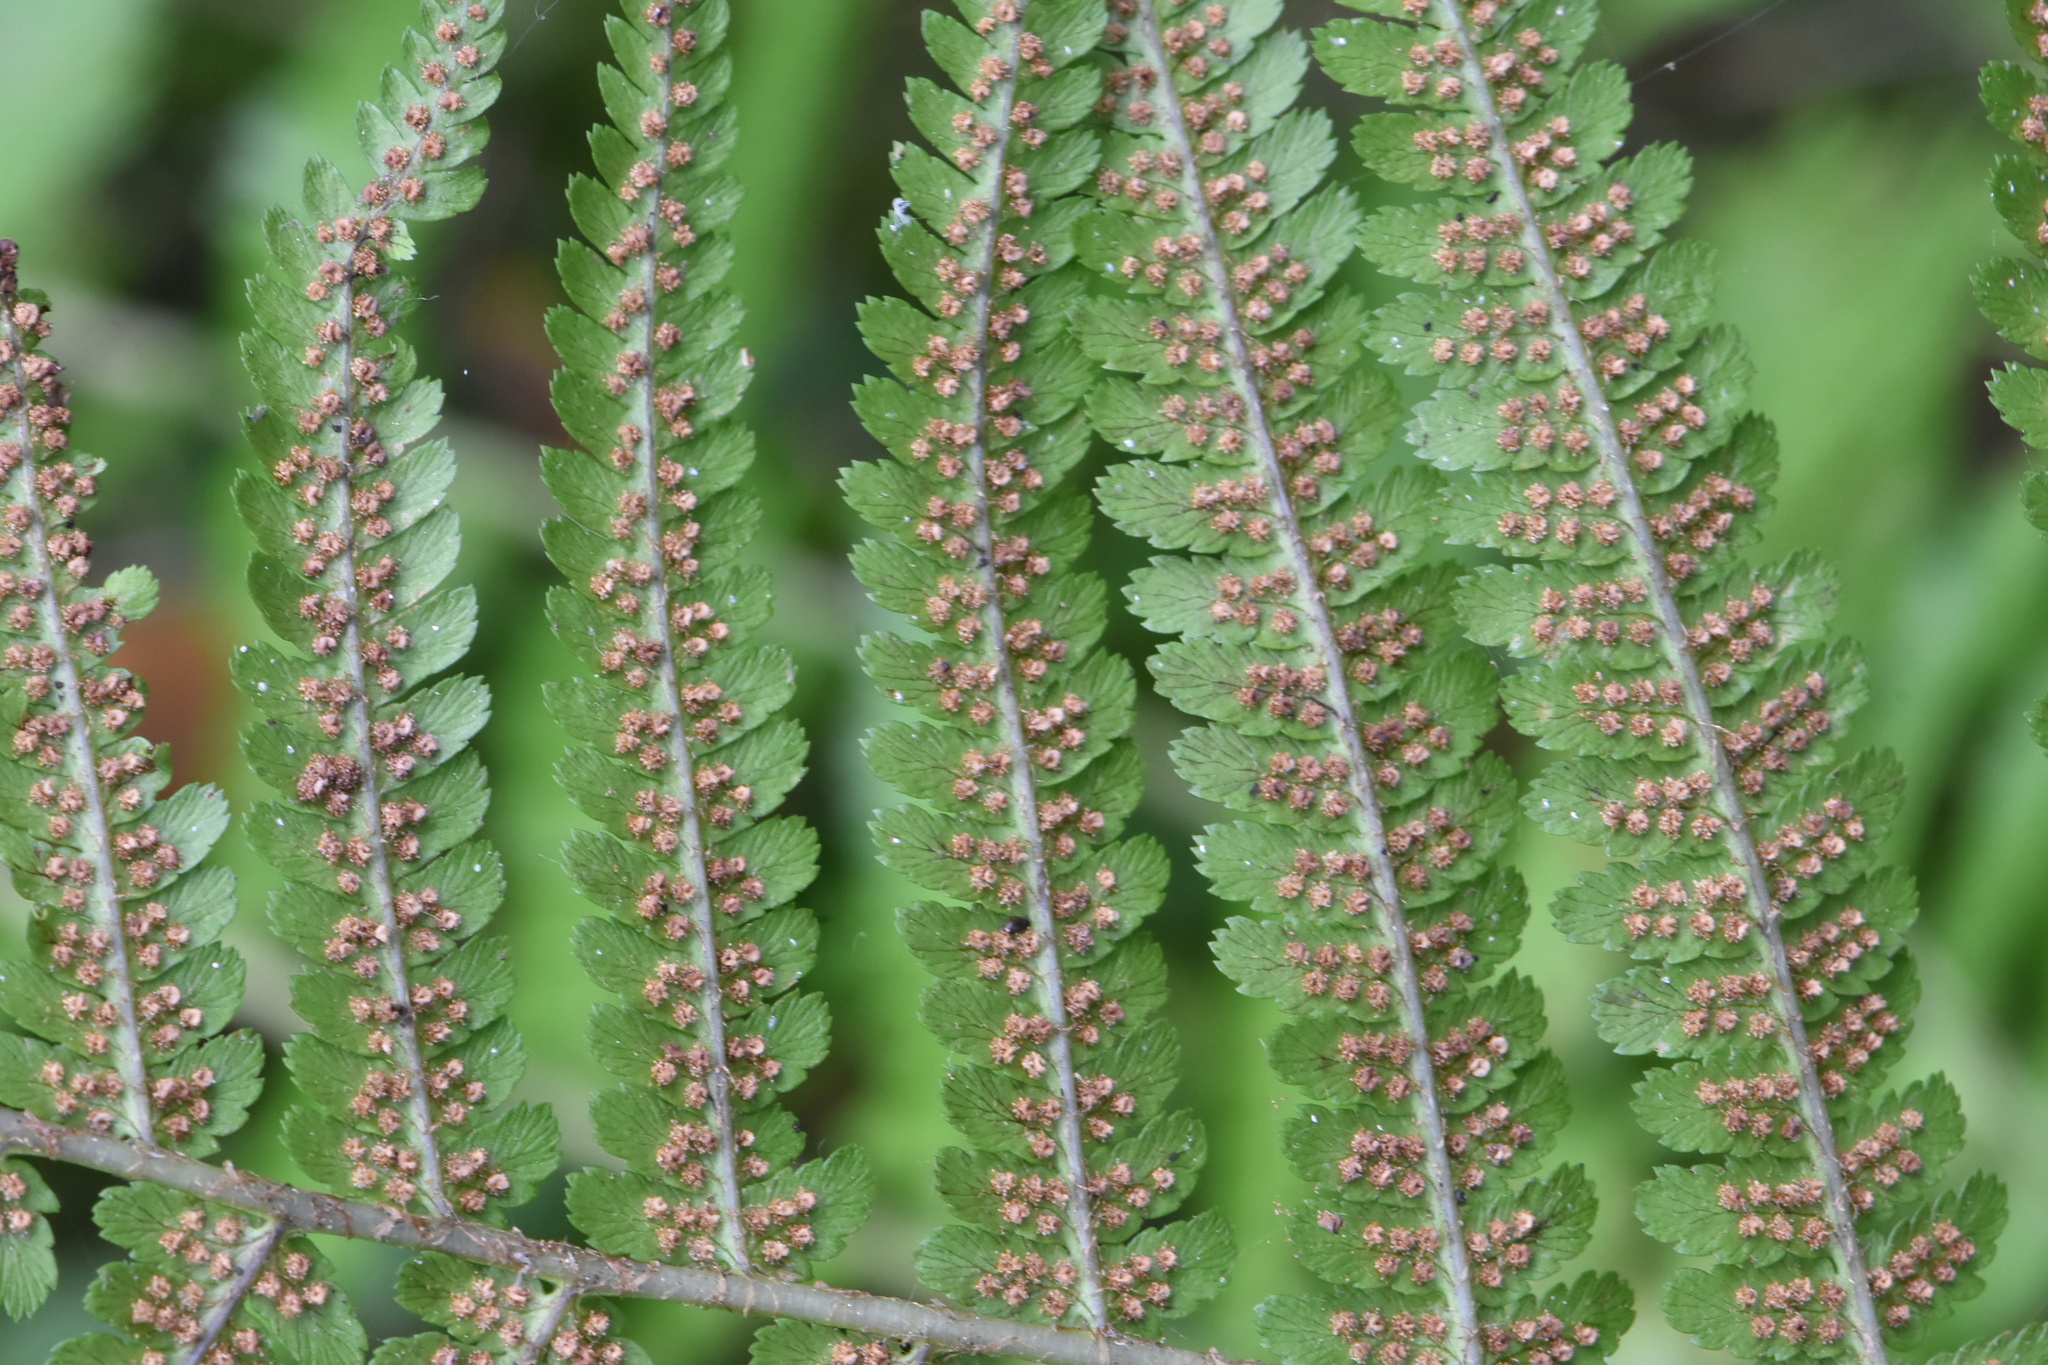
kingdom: Plantae
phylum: Tracheophyta
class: Polypodiopsida
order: Polypodiales
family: Dryopteridaceae
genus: Dryopteris
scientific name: Dryopteris filix-mas
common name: Male fern
